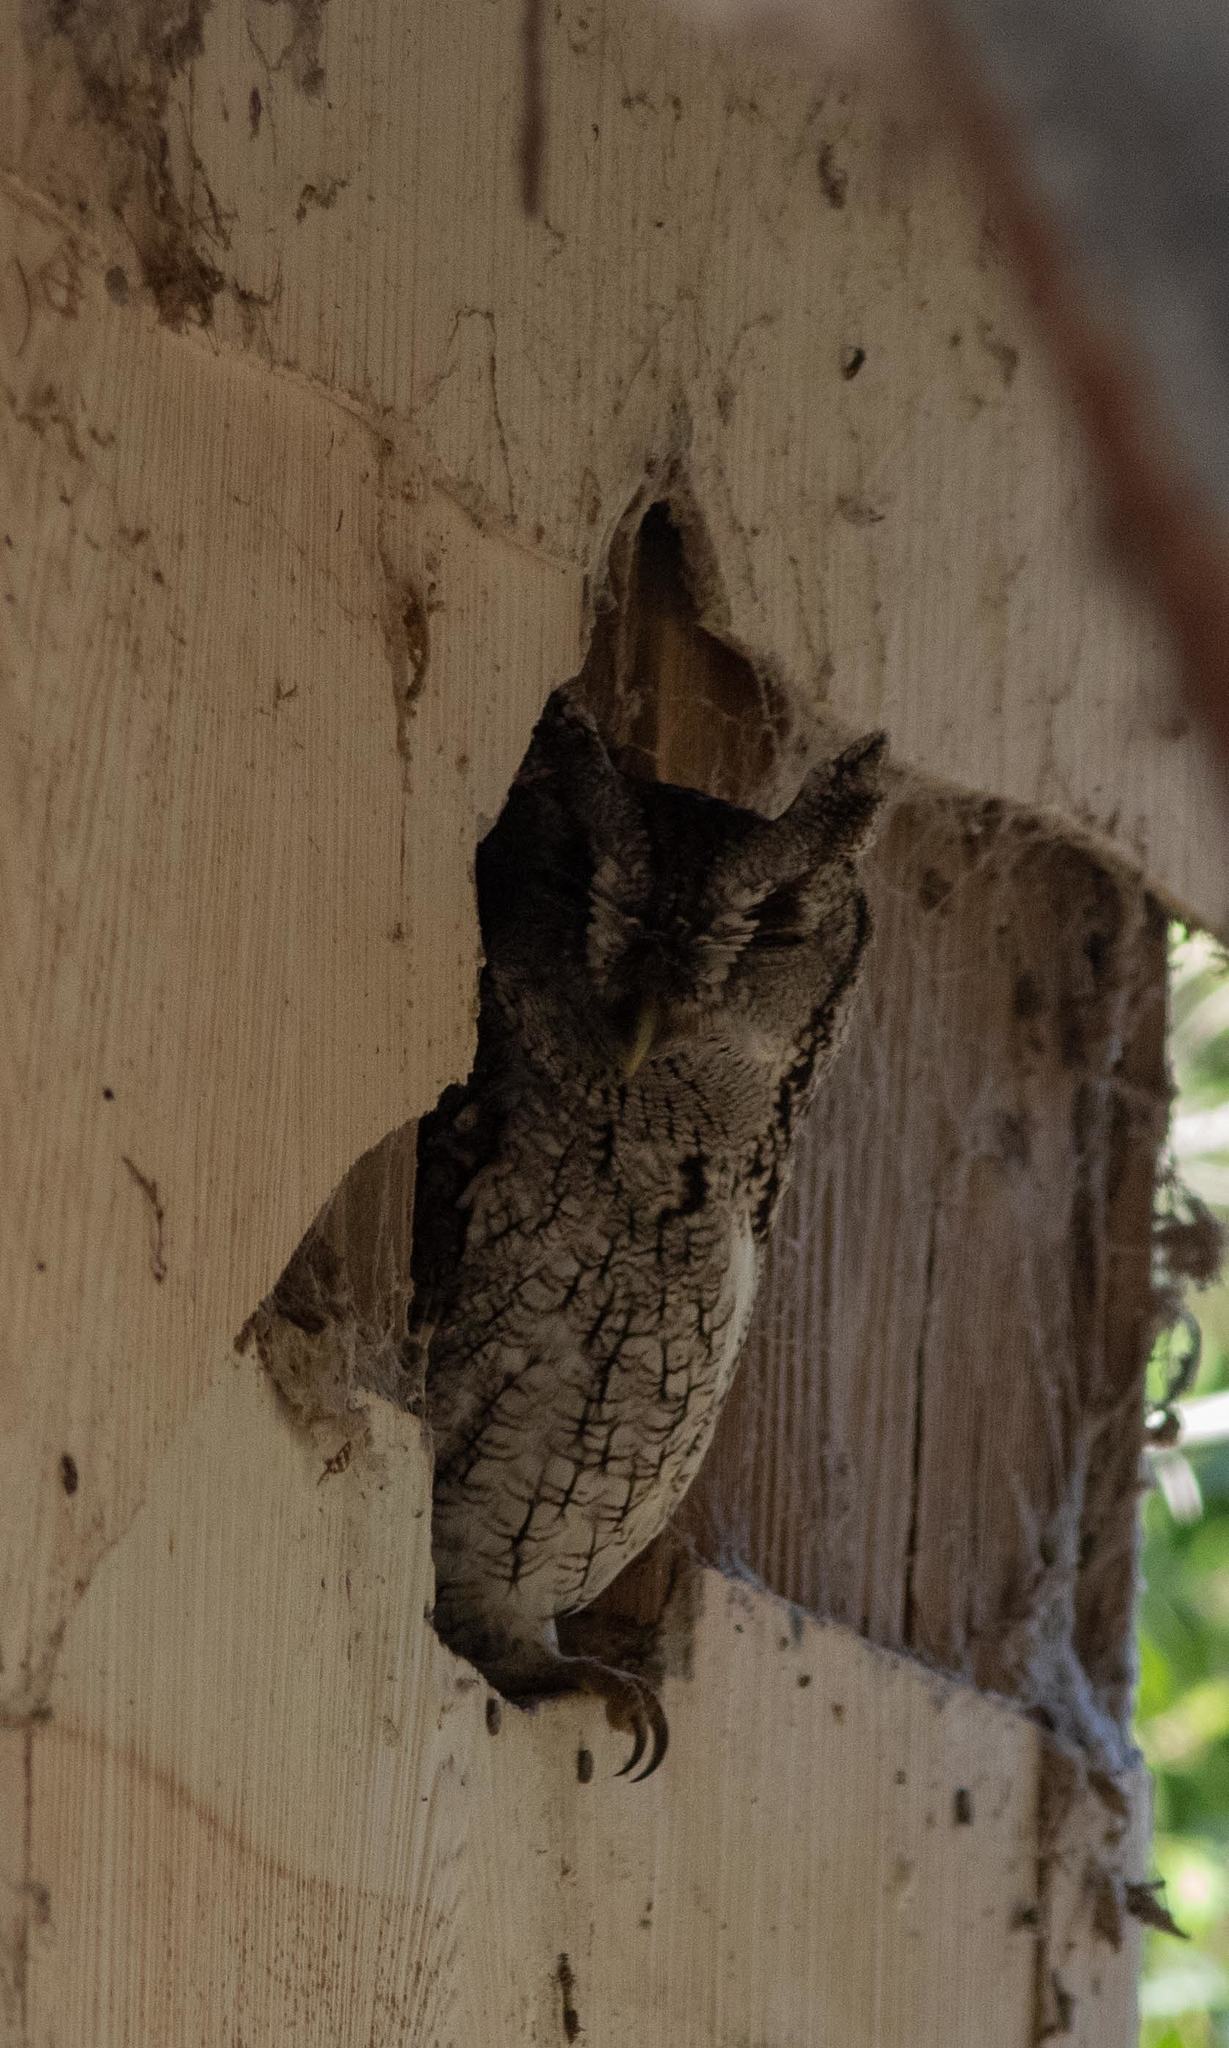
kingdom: Animalia
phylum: Chordata
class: Aves
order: Strigiformes
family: Strigidae
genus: Megascops
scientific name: Megascops asio
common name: Eastern screech-owl
